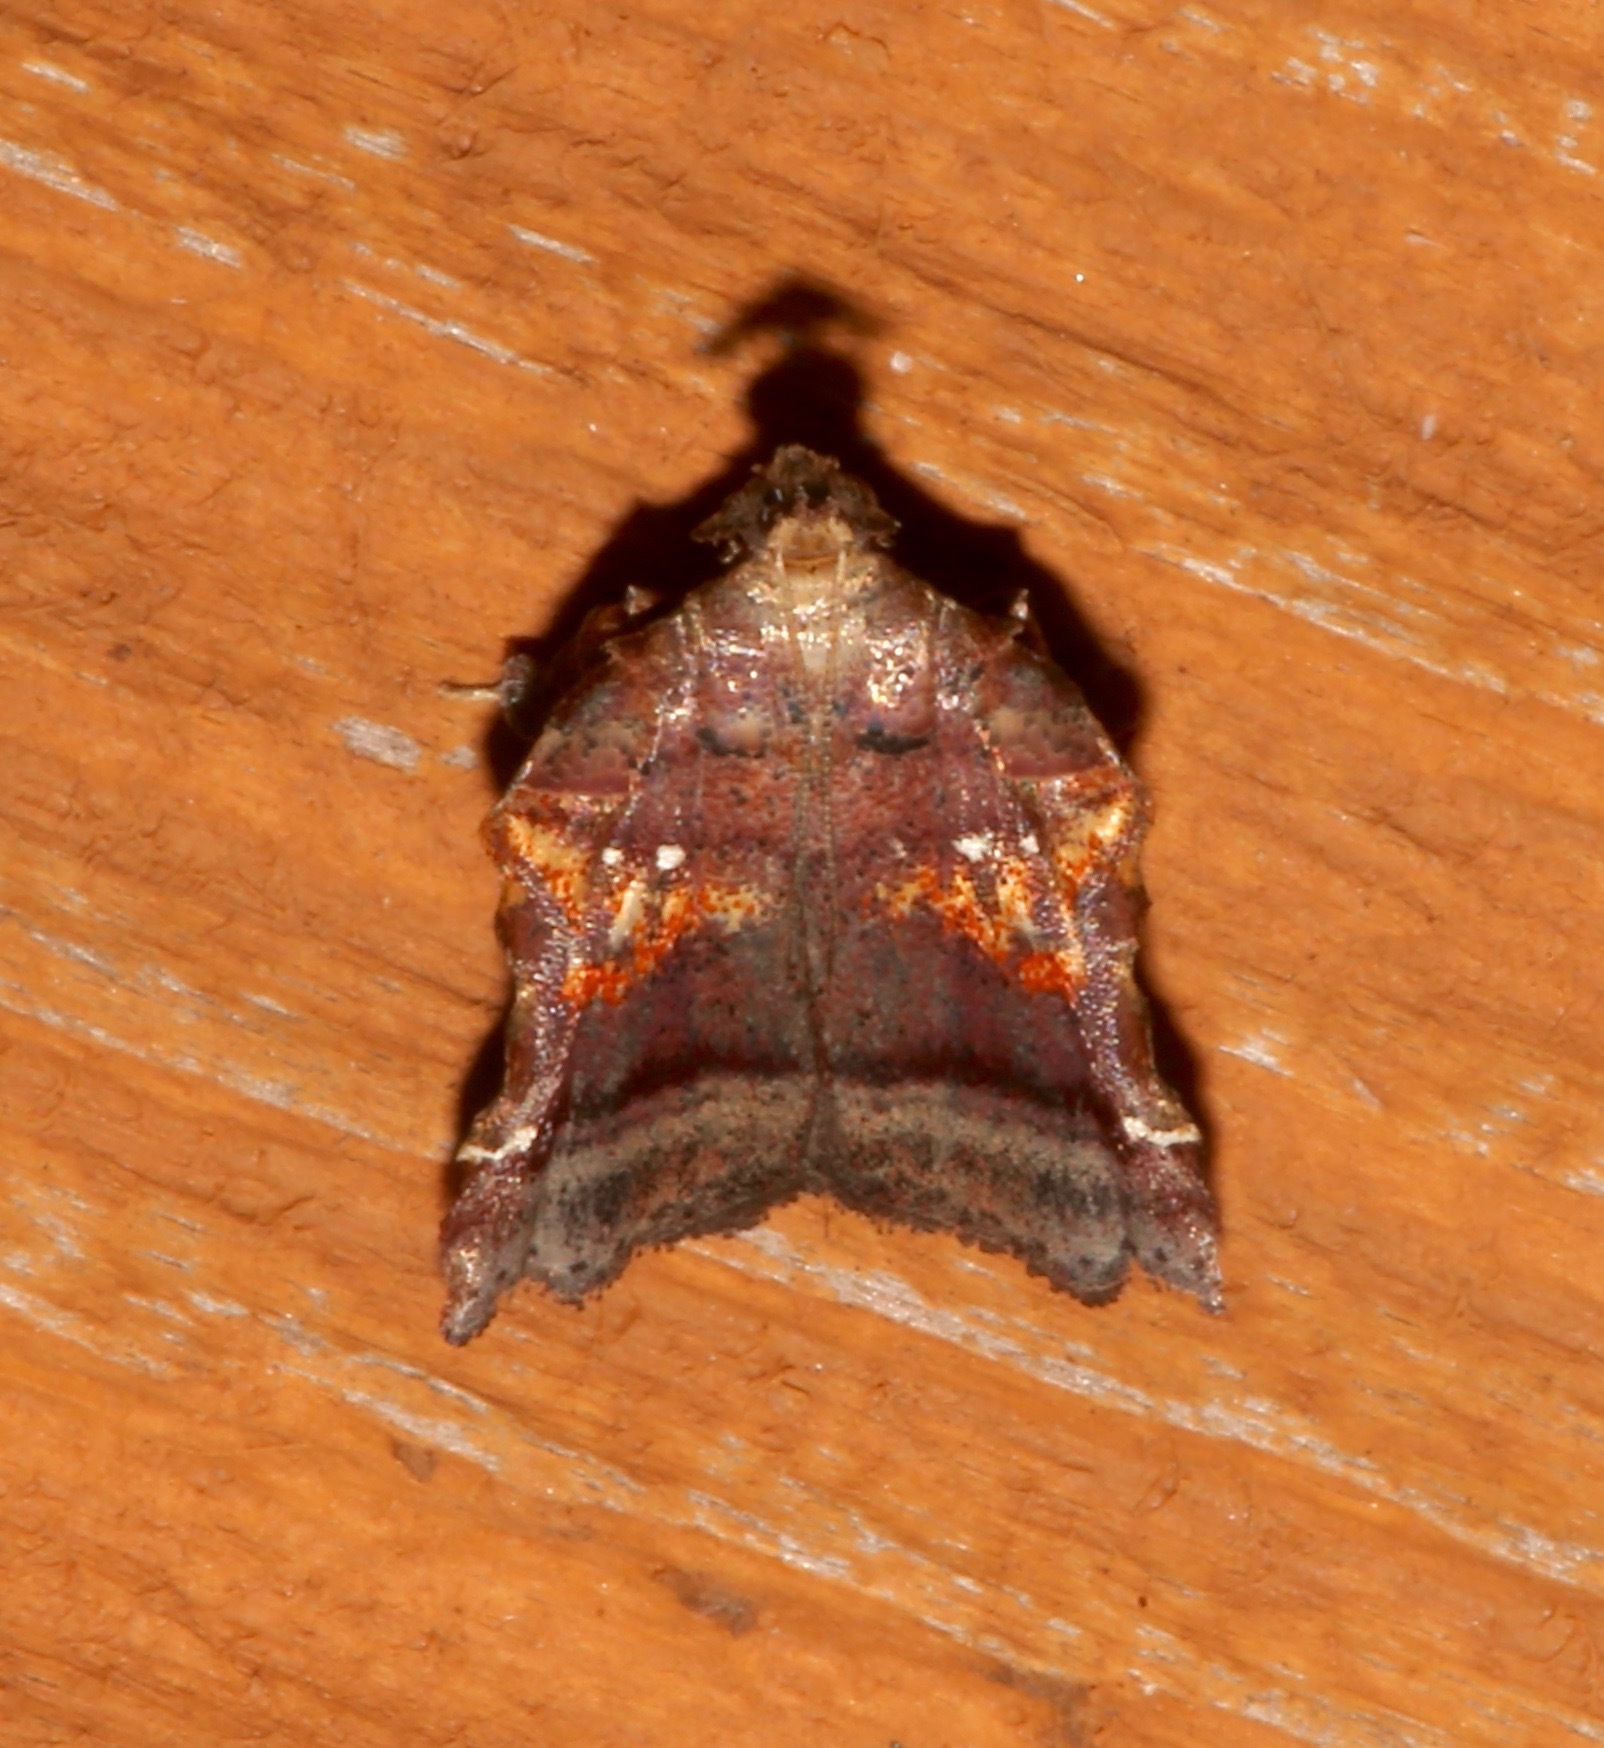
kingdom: Animalia
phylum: Arthropoda
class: Insecta
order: Lepidoptera
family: Pyralidae
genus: Clydonopteron
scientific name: Clydonopteron sacculana
